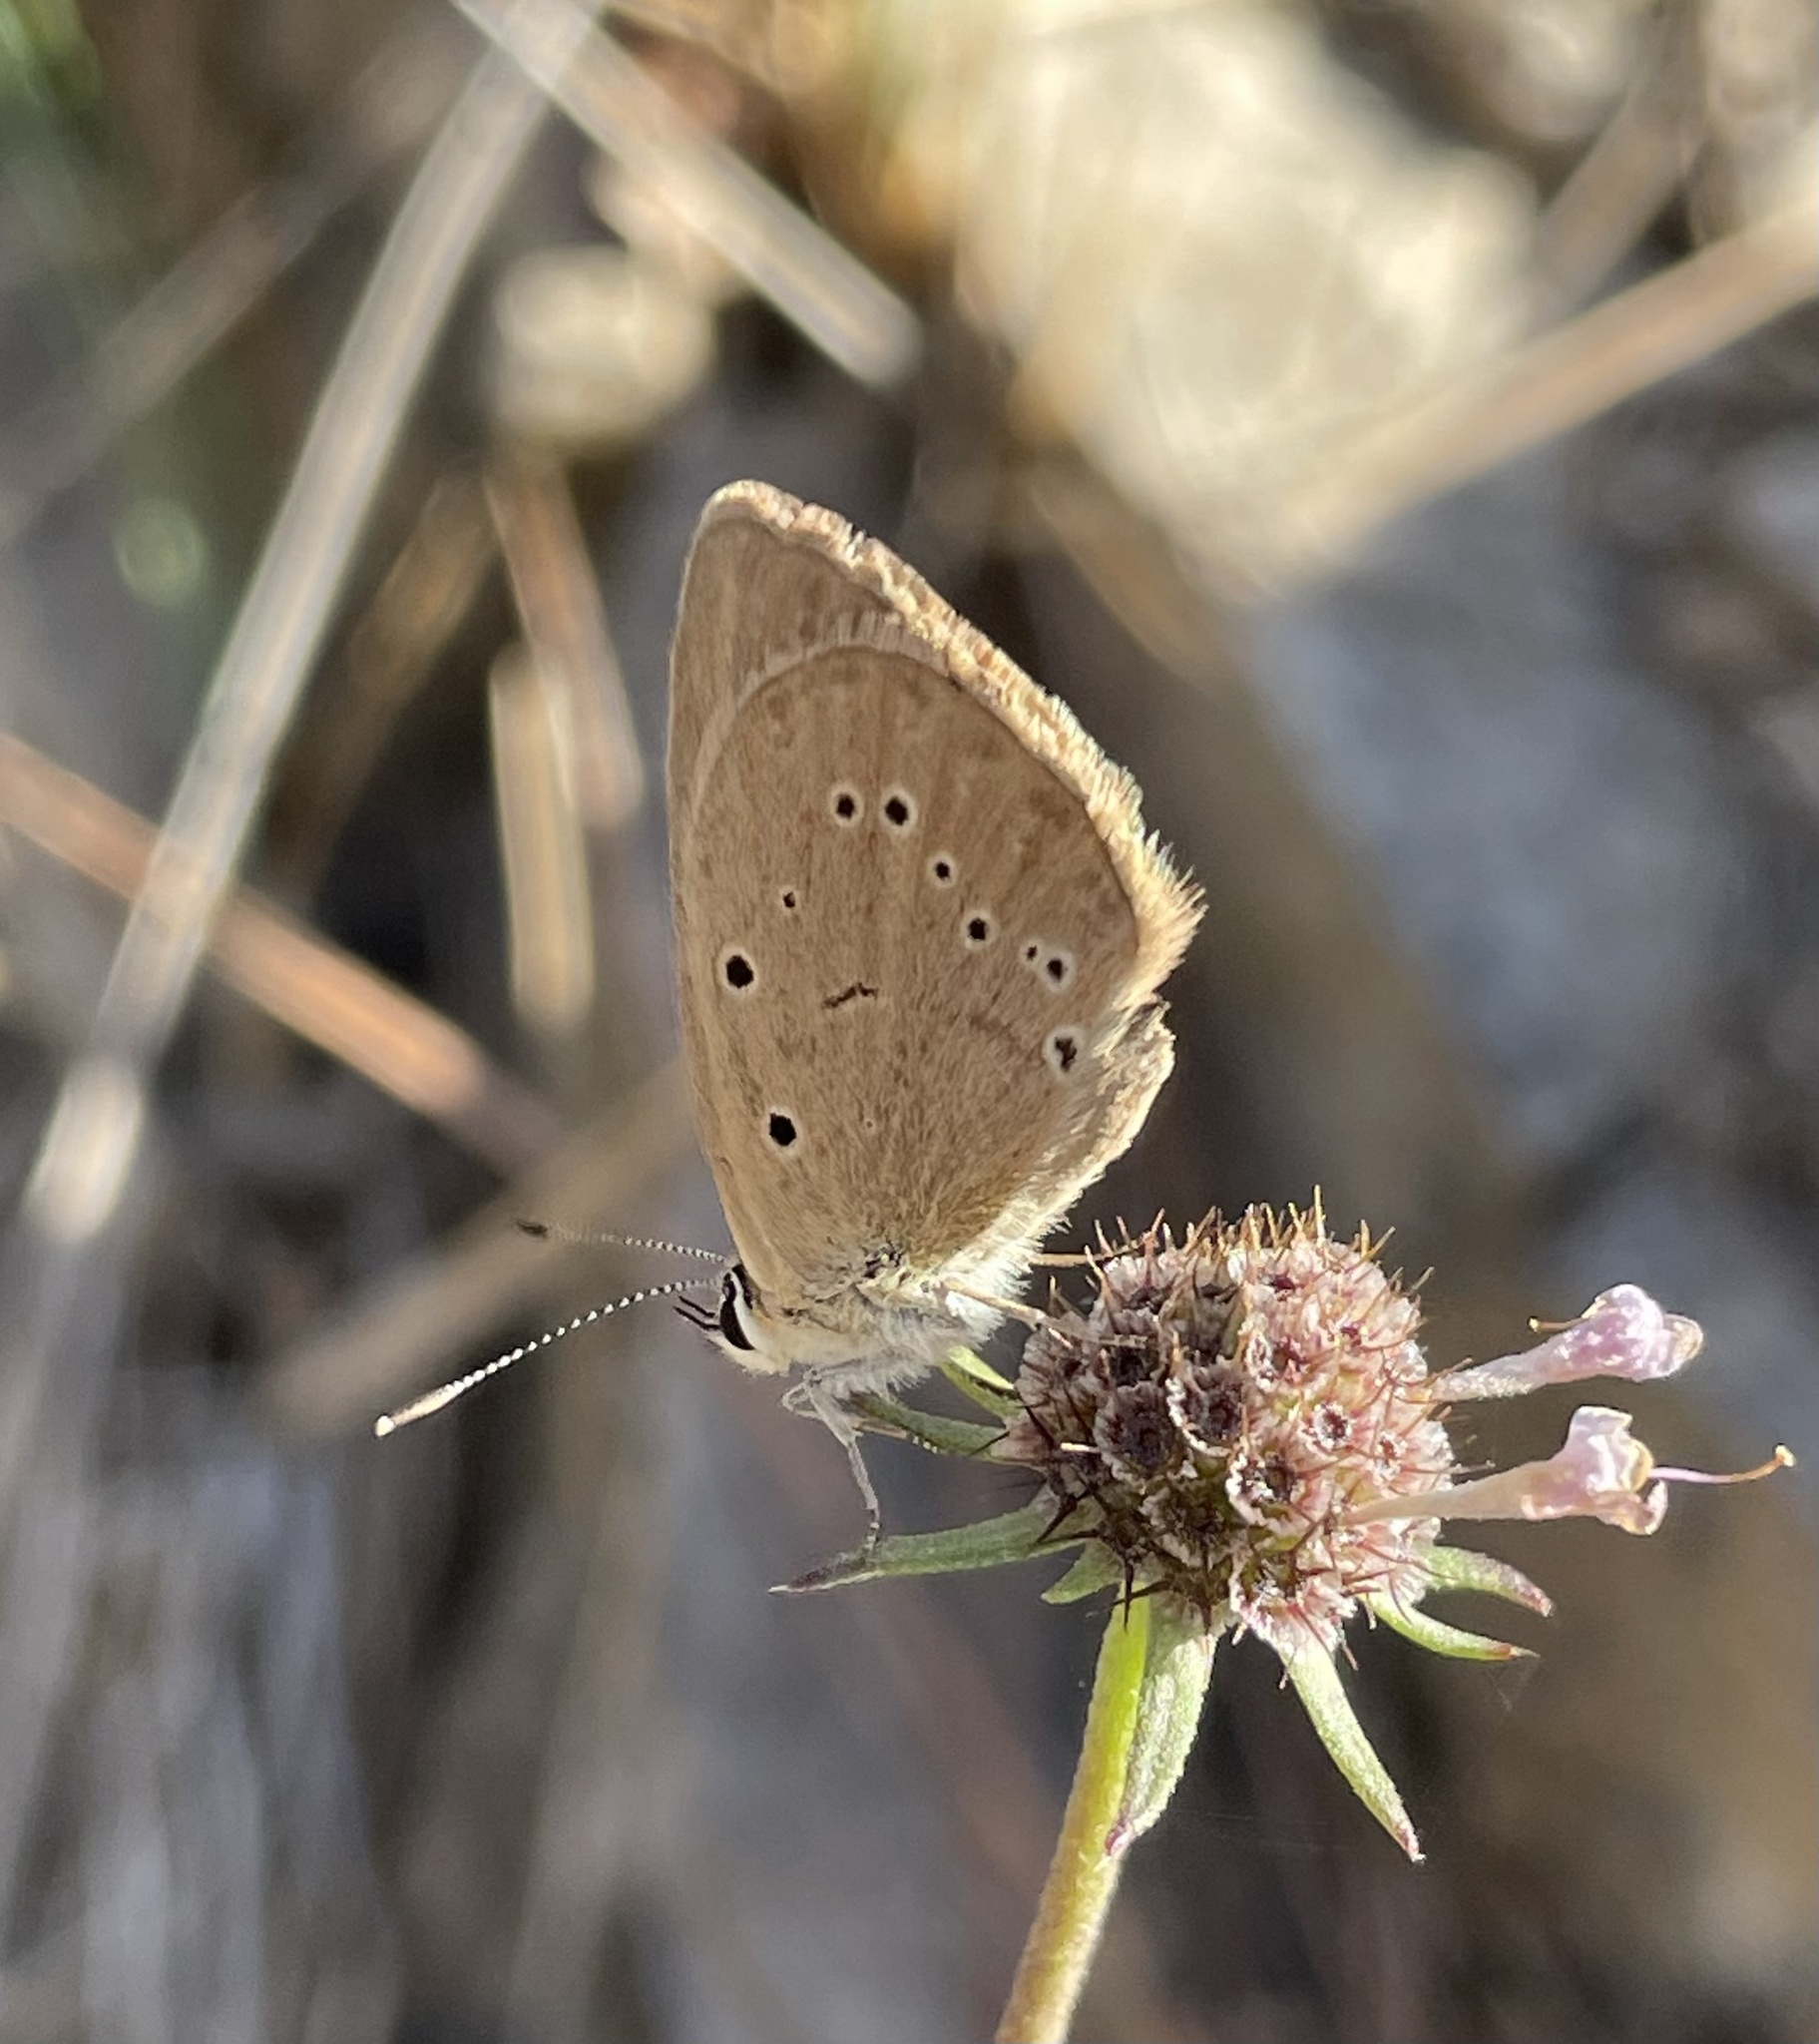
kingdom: Animalia
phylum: Arthropoda
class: Insecta
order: Lepidoptera
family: Lycaenidae
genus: Polyommatus
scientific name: Polyommatus ripartii
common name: Ripart's anomalous blue
